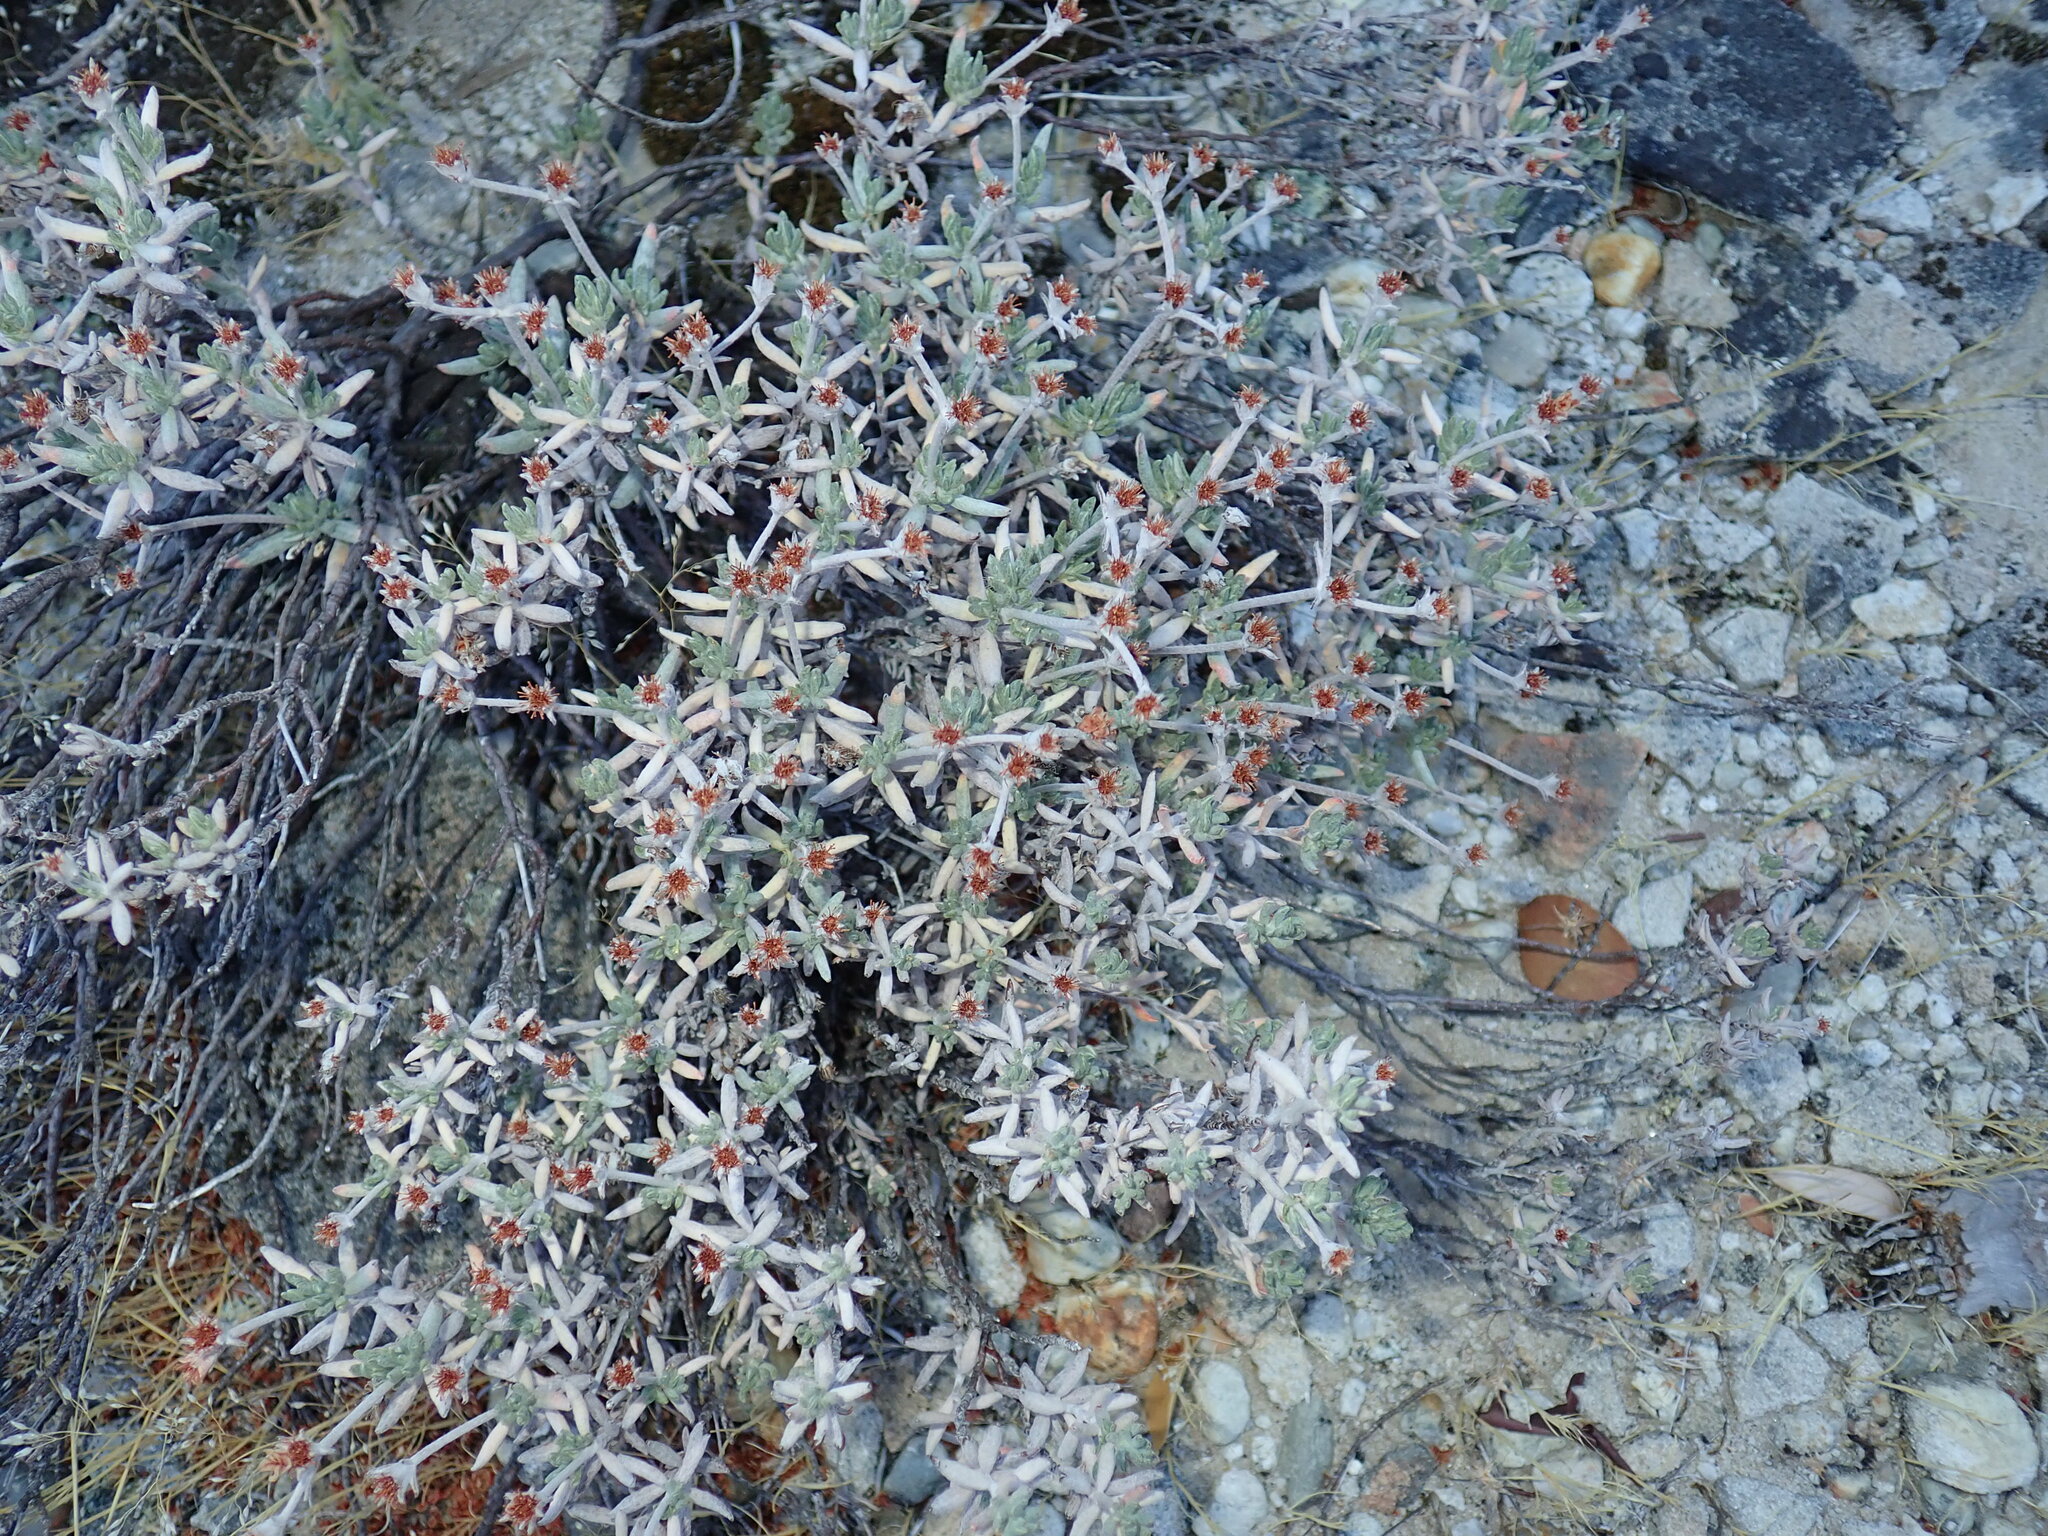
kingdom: Plantae
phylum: Tracheophyta
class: Magnoliopsida
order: Caryophyllales
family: Polygonaceae
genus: Eriogonum
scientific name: Eriogonum butterworthianum
